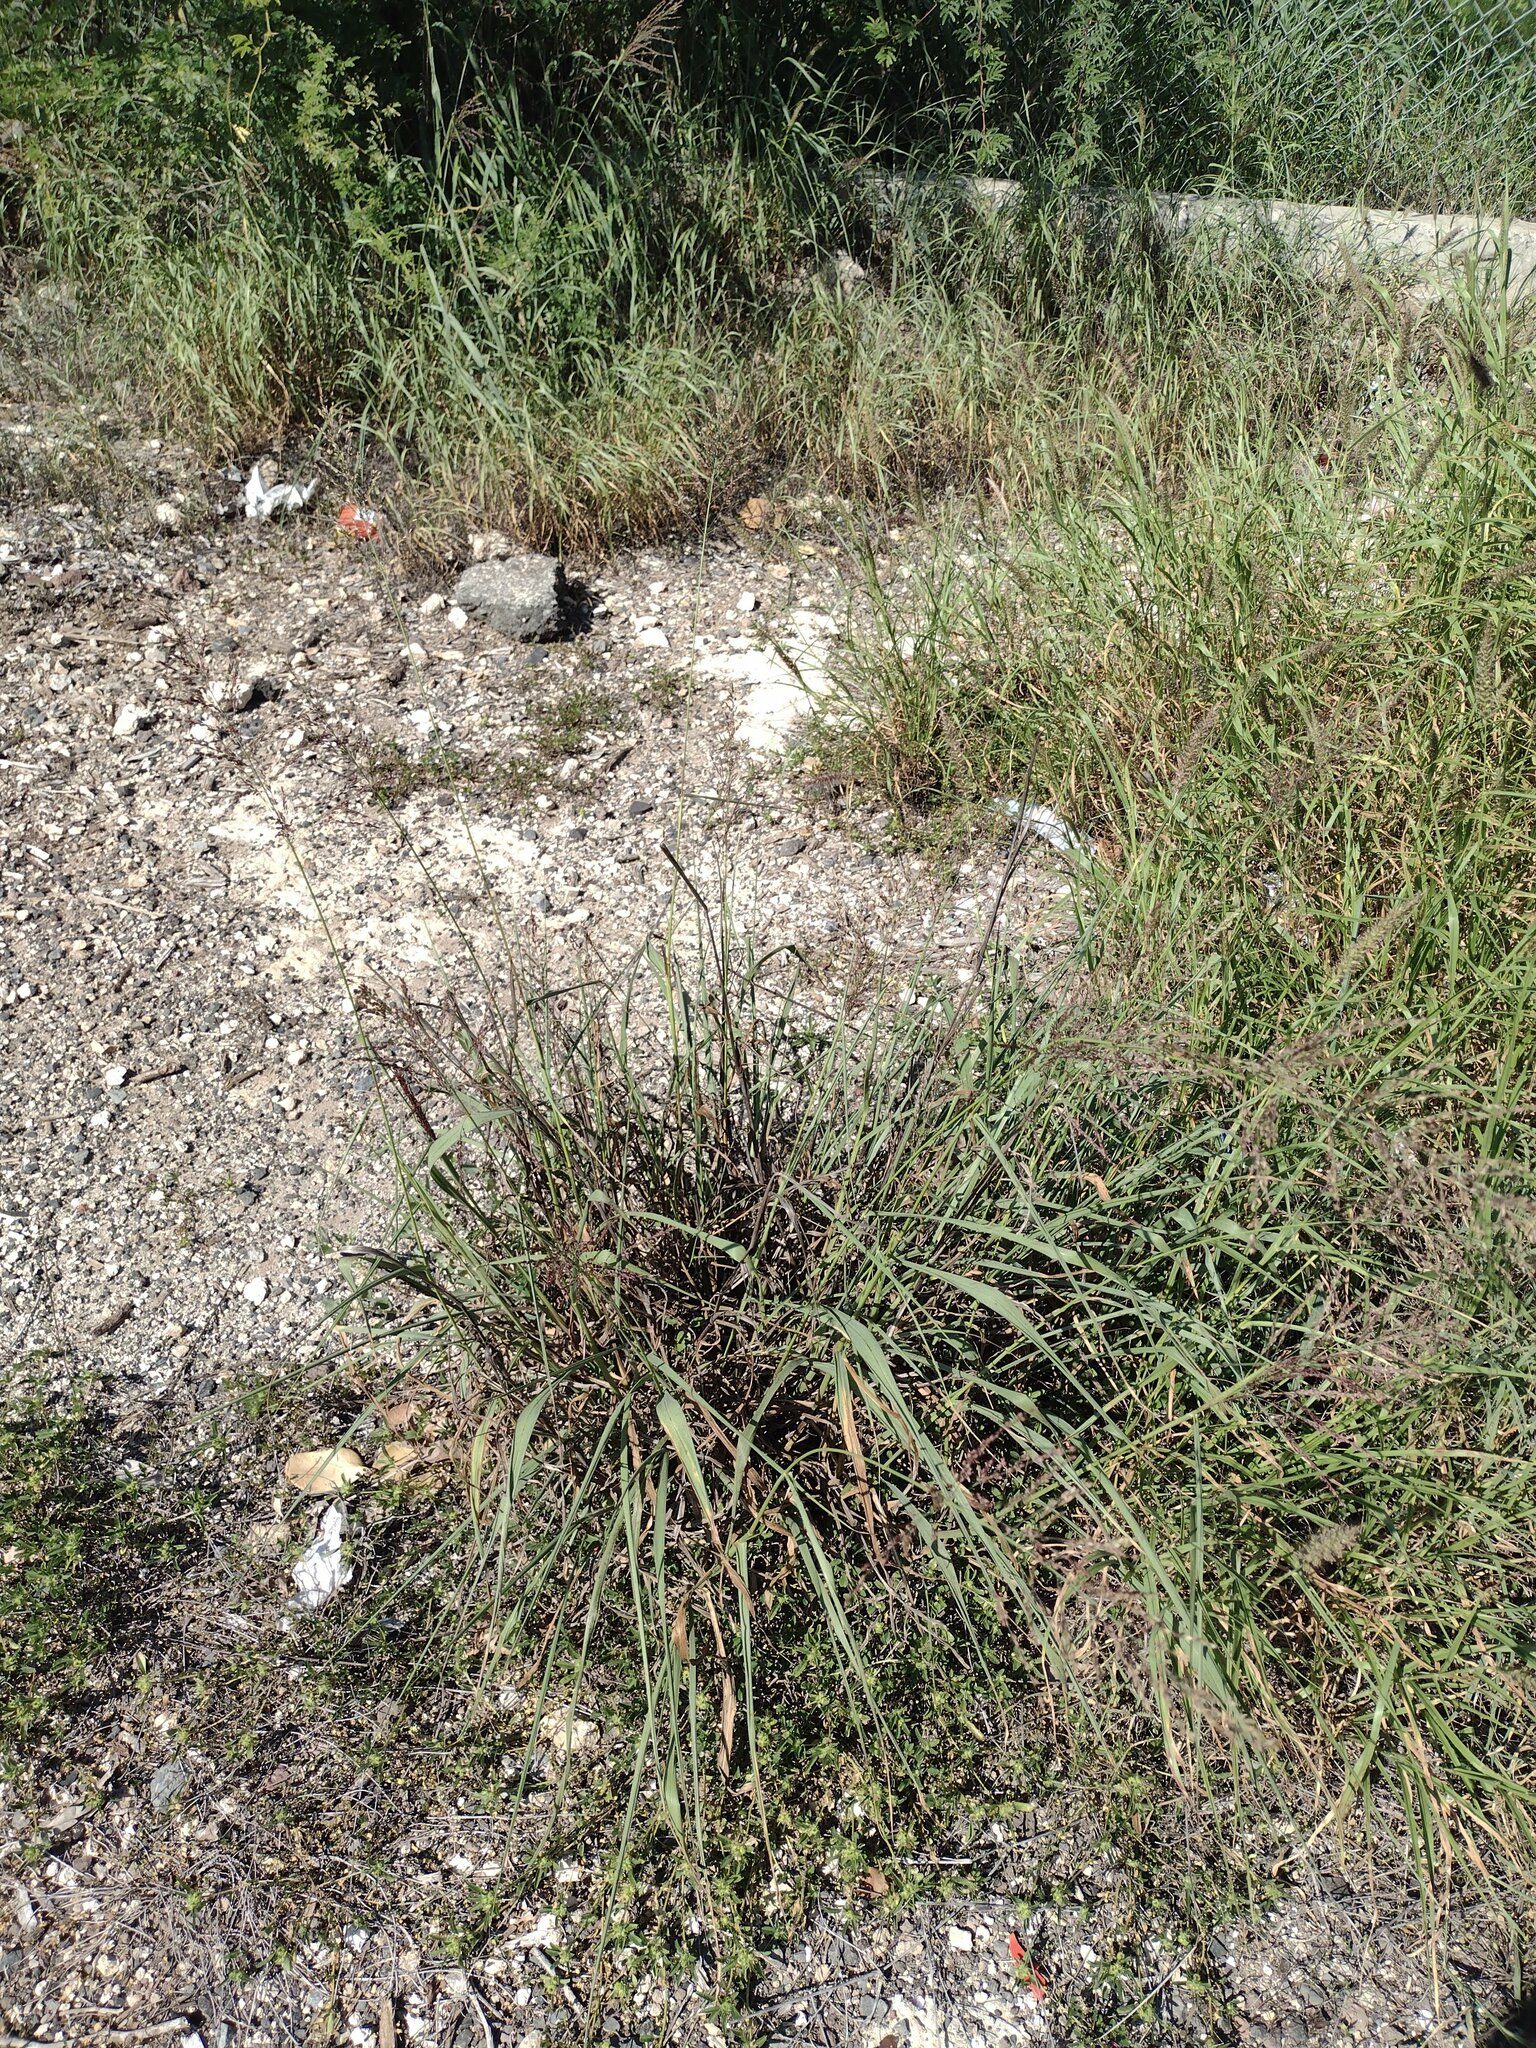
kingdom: Plantae
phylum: Tracheophyta
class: Liliopsida
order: Poales
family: Poaceae
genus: Megathyrsus
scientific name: Megathyrsus maximus
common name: Guineagrass
